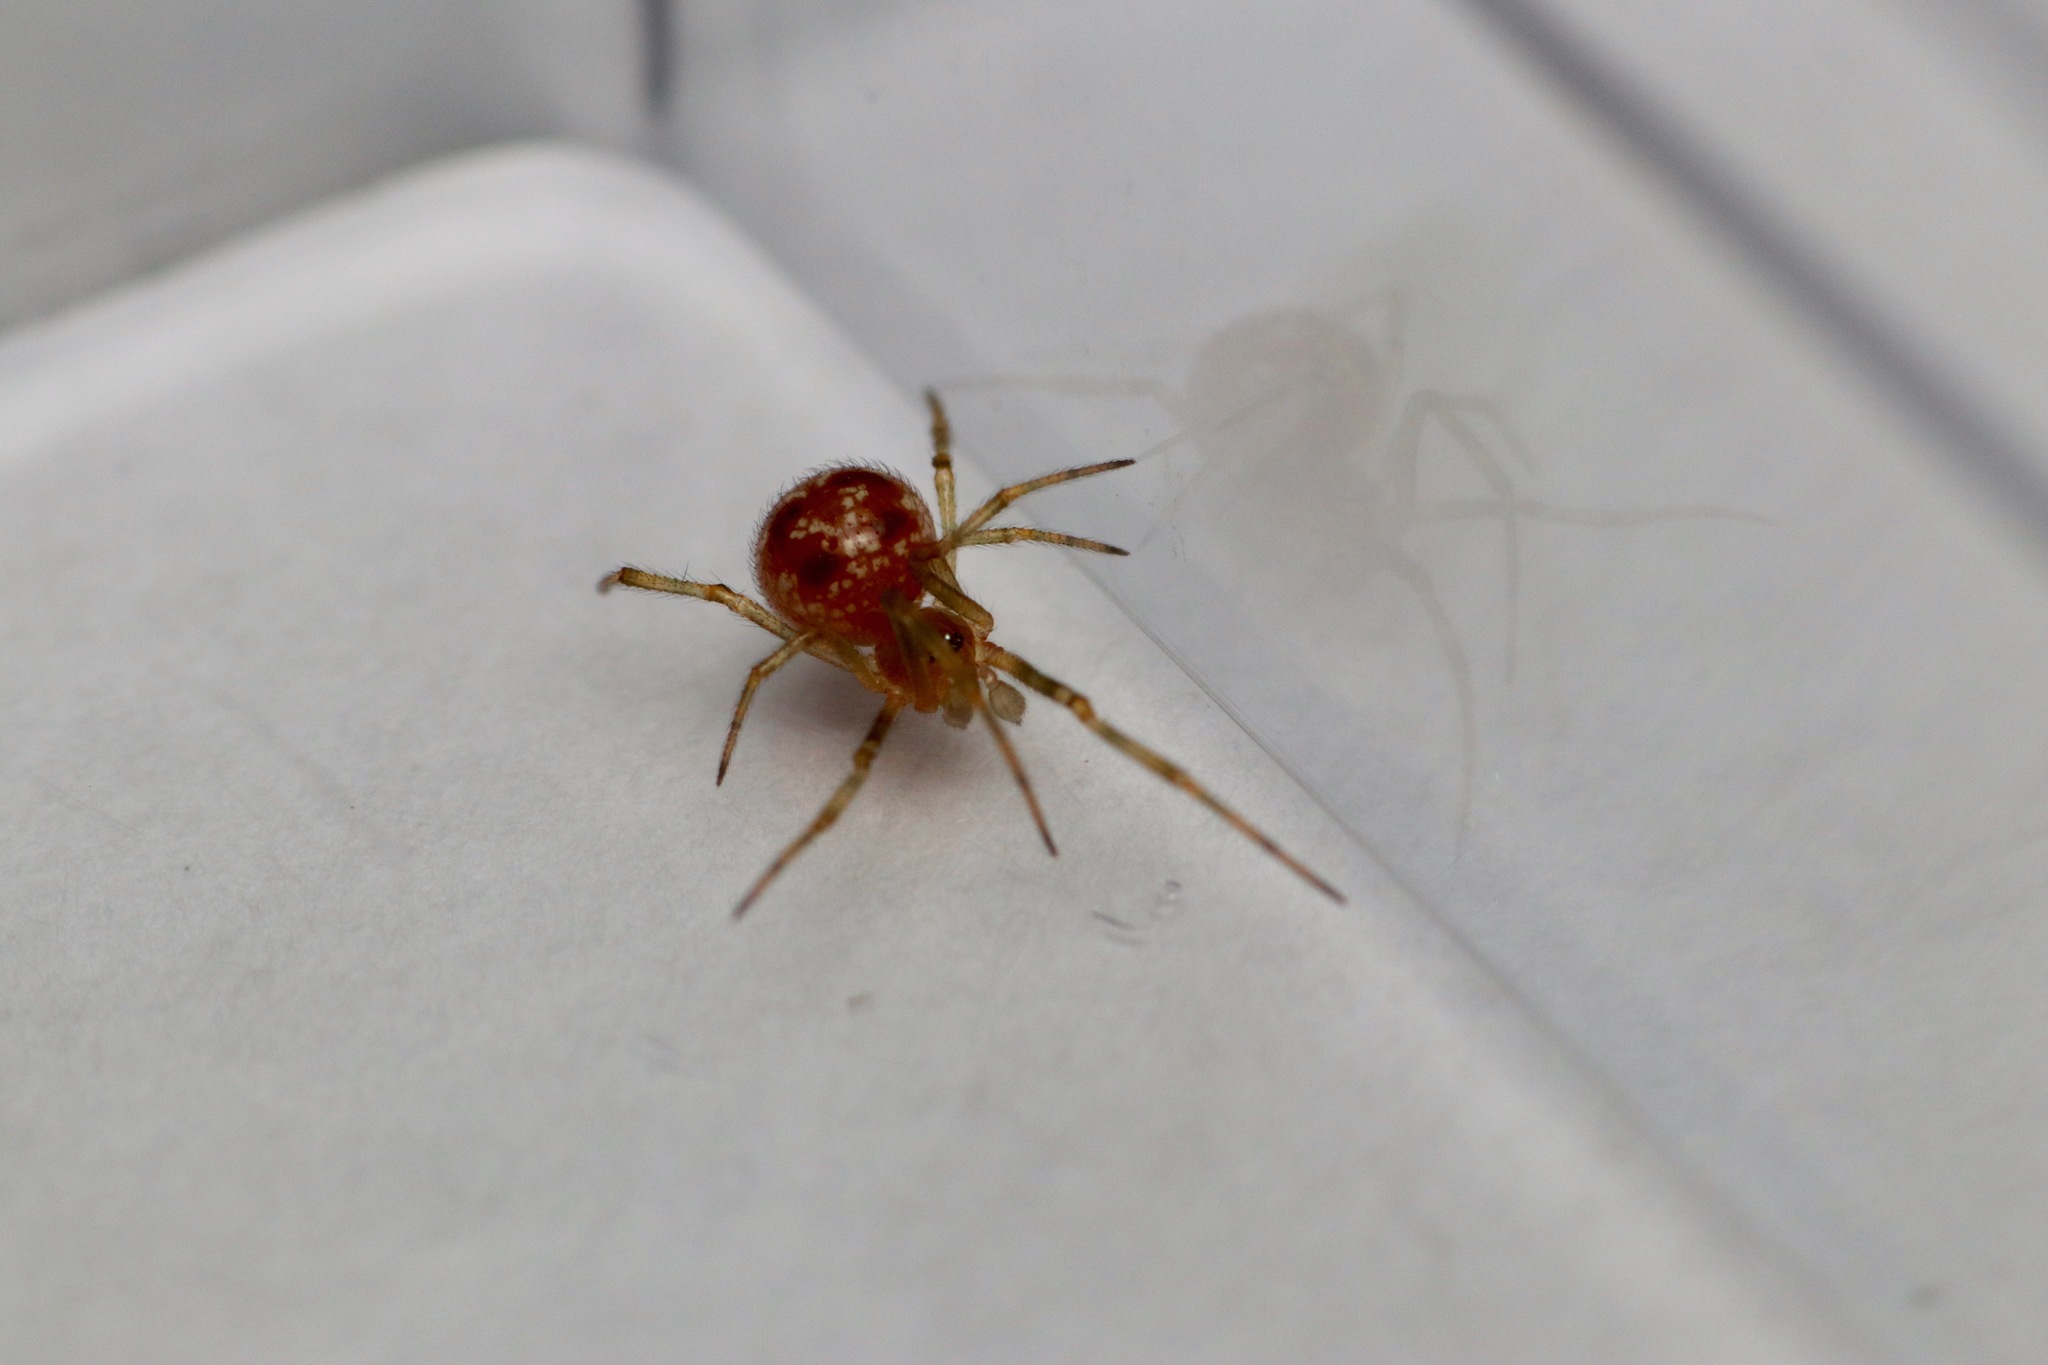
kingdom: Animalia
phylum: Arthropoda
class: Arachnida
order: Araneae
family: Theridiidae
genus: Steatoda
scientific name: Steatoda triangulosa
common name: Triangulate bud spider
